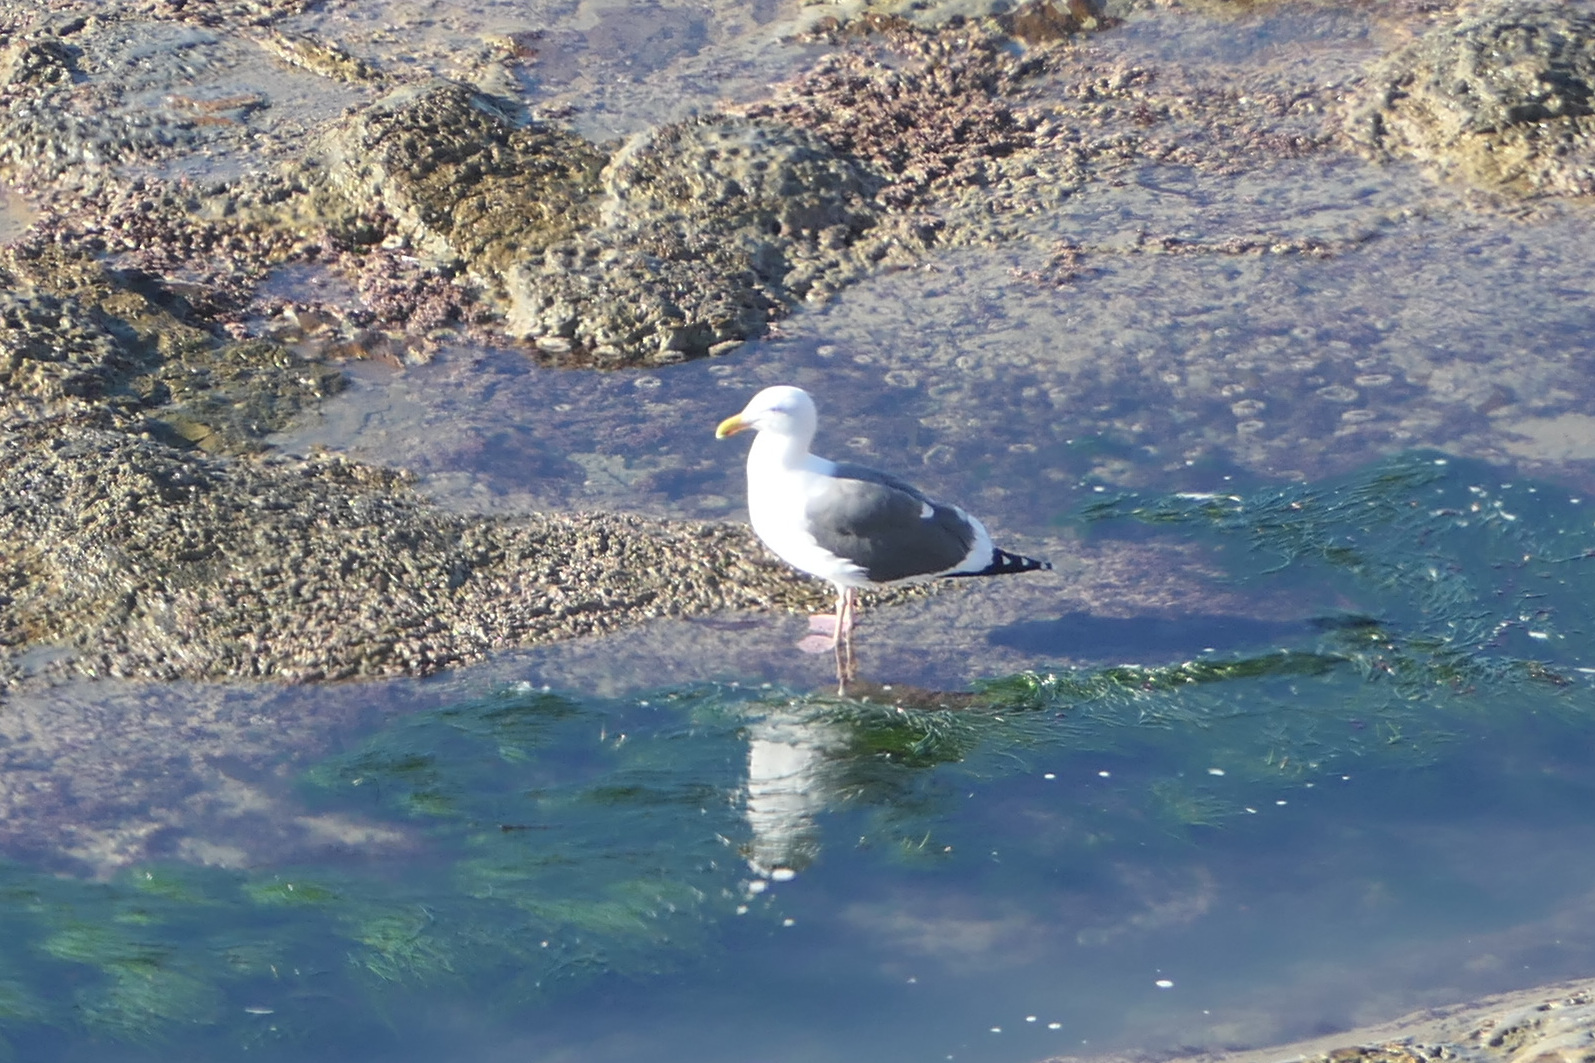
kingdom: Animalia
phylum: Chordata
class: Aves
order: Charadriiformes
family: Laridae
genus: Larus
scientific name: Larus occidentalis
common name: Western gull
